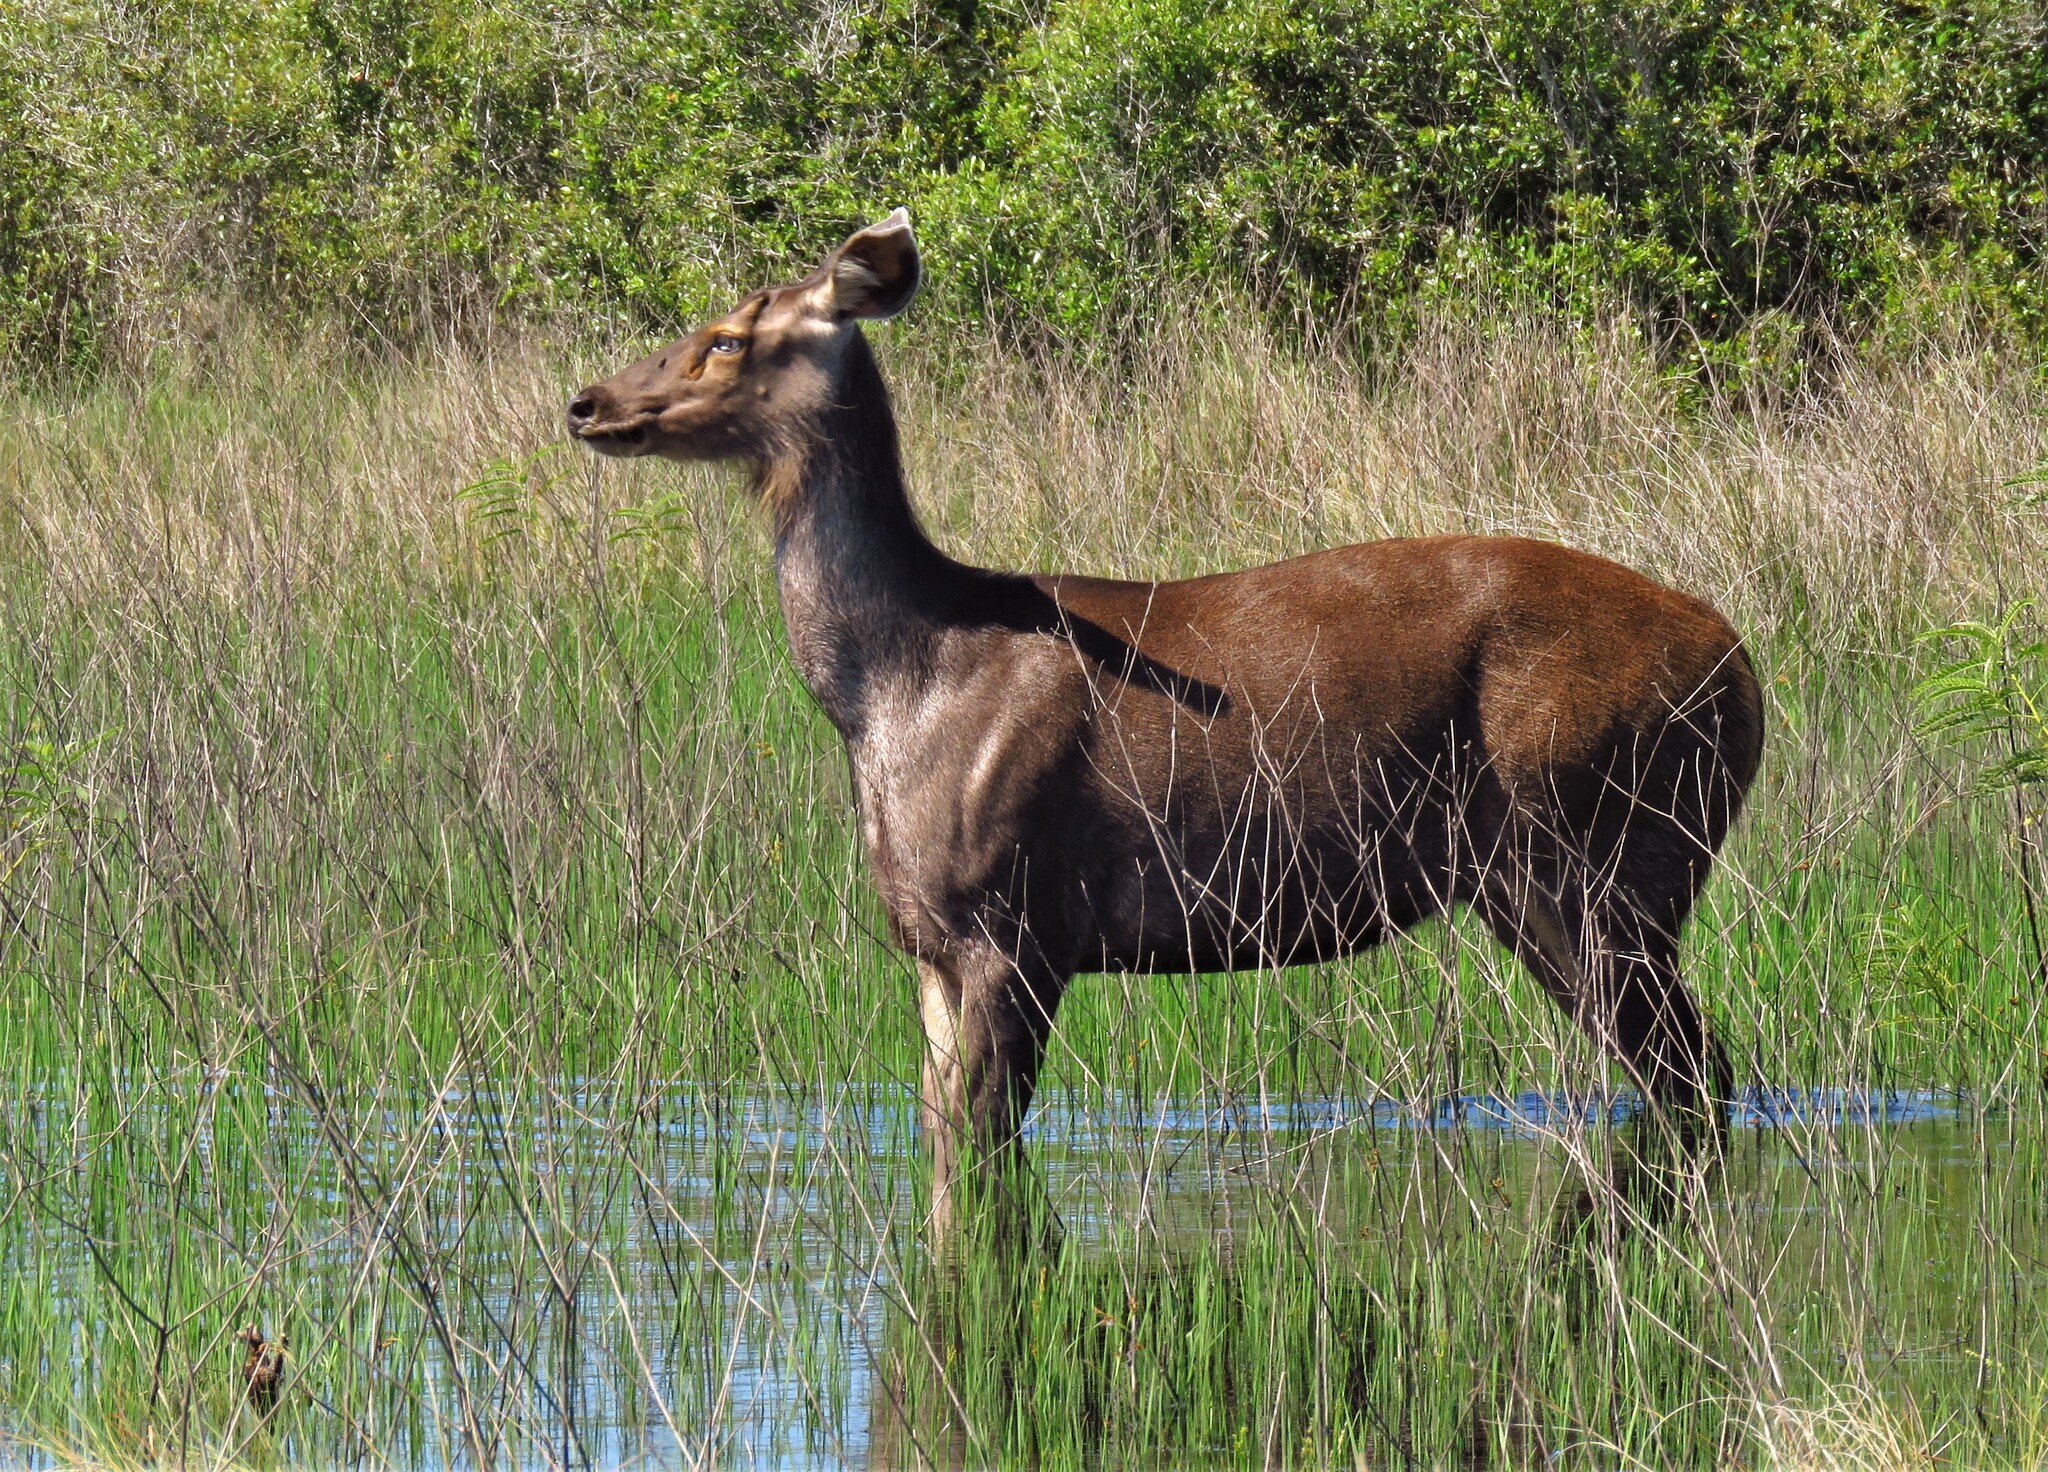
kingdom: Animalia
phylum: Chordata
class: Mammalia
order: Artiodactyla
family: Cervidae
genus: Rusa
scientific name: Rusa unicolor
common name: Sambar
